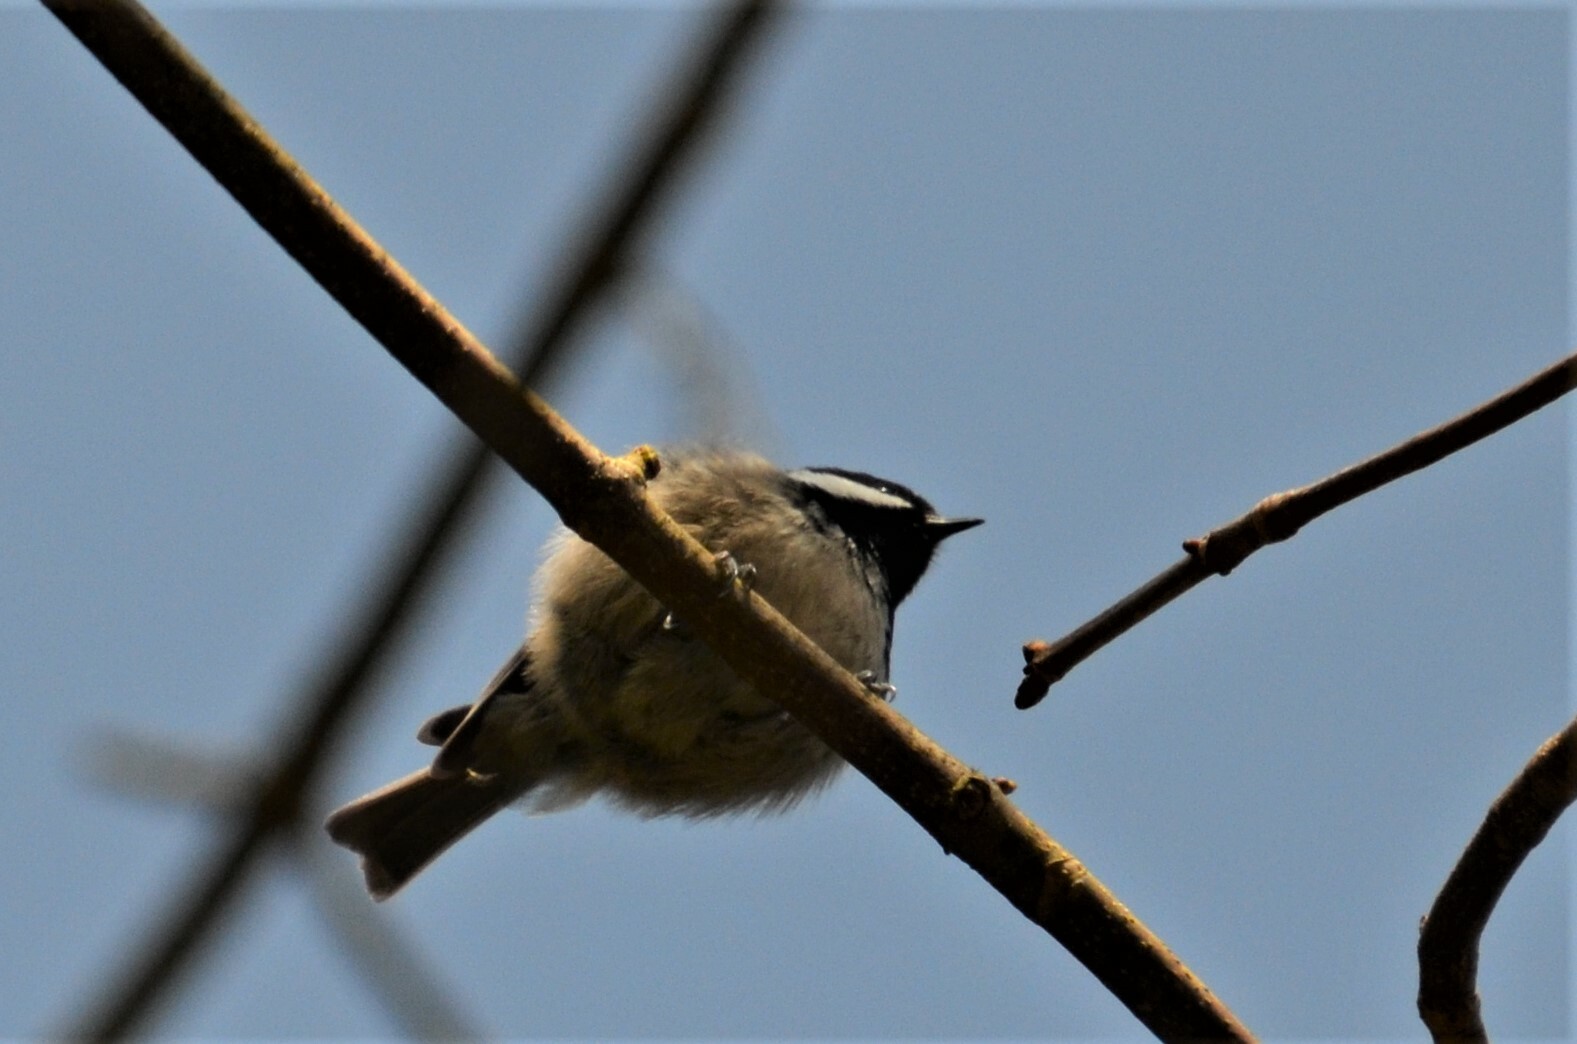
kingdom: Animalia
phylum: Chordata
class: Aves
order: Passeriformes
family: Paridae
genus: Periparus
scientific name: Periparus ater
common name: Coal tit
